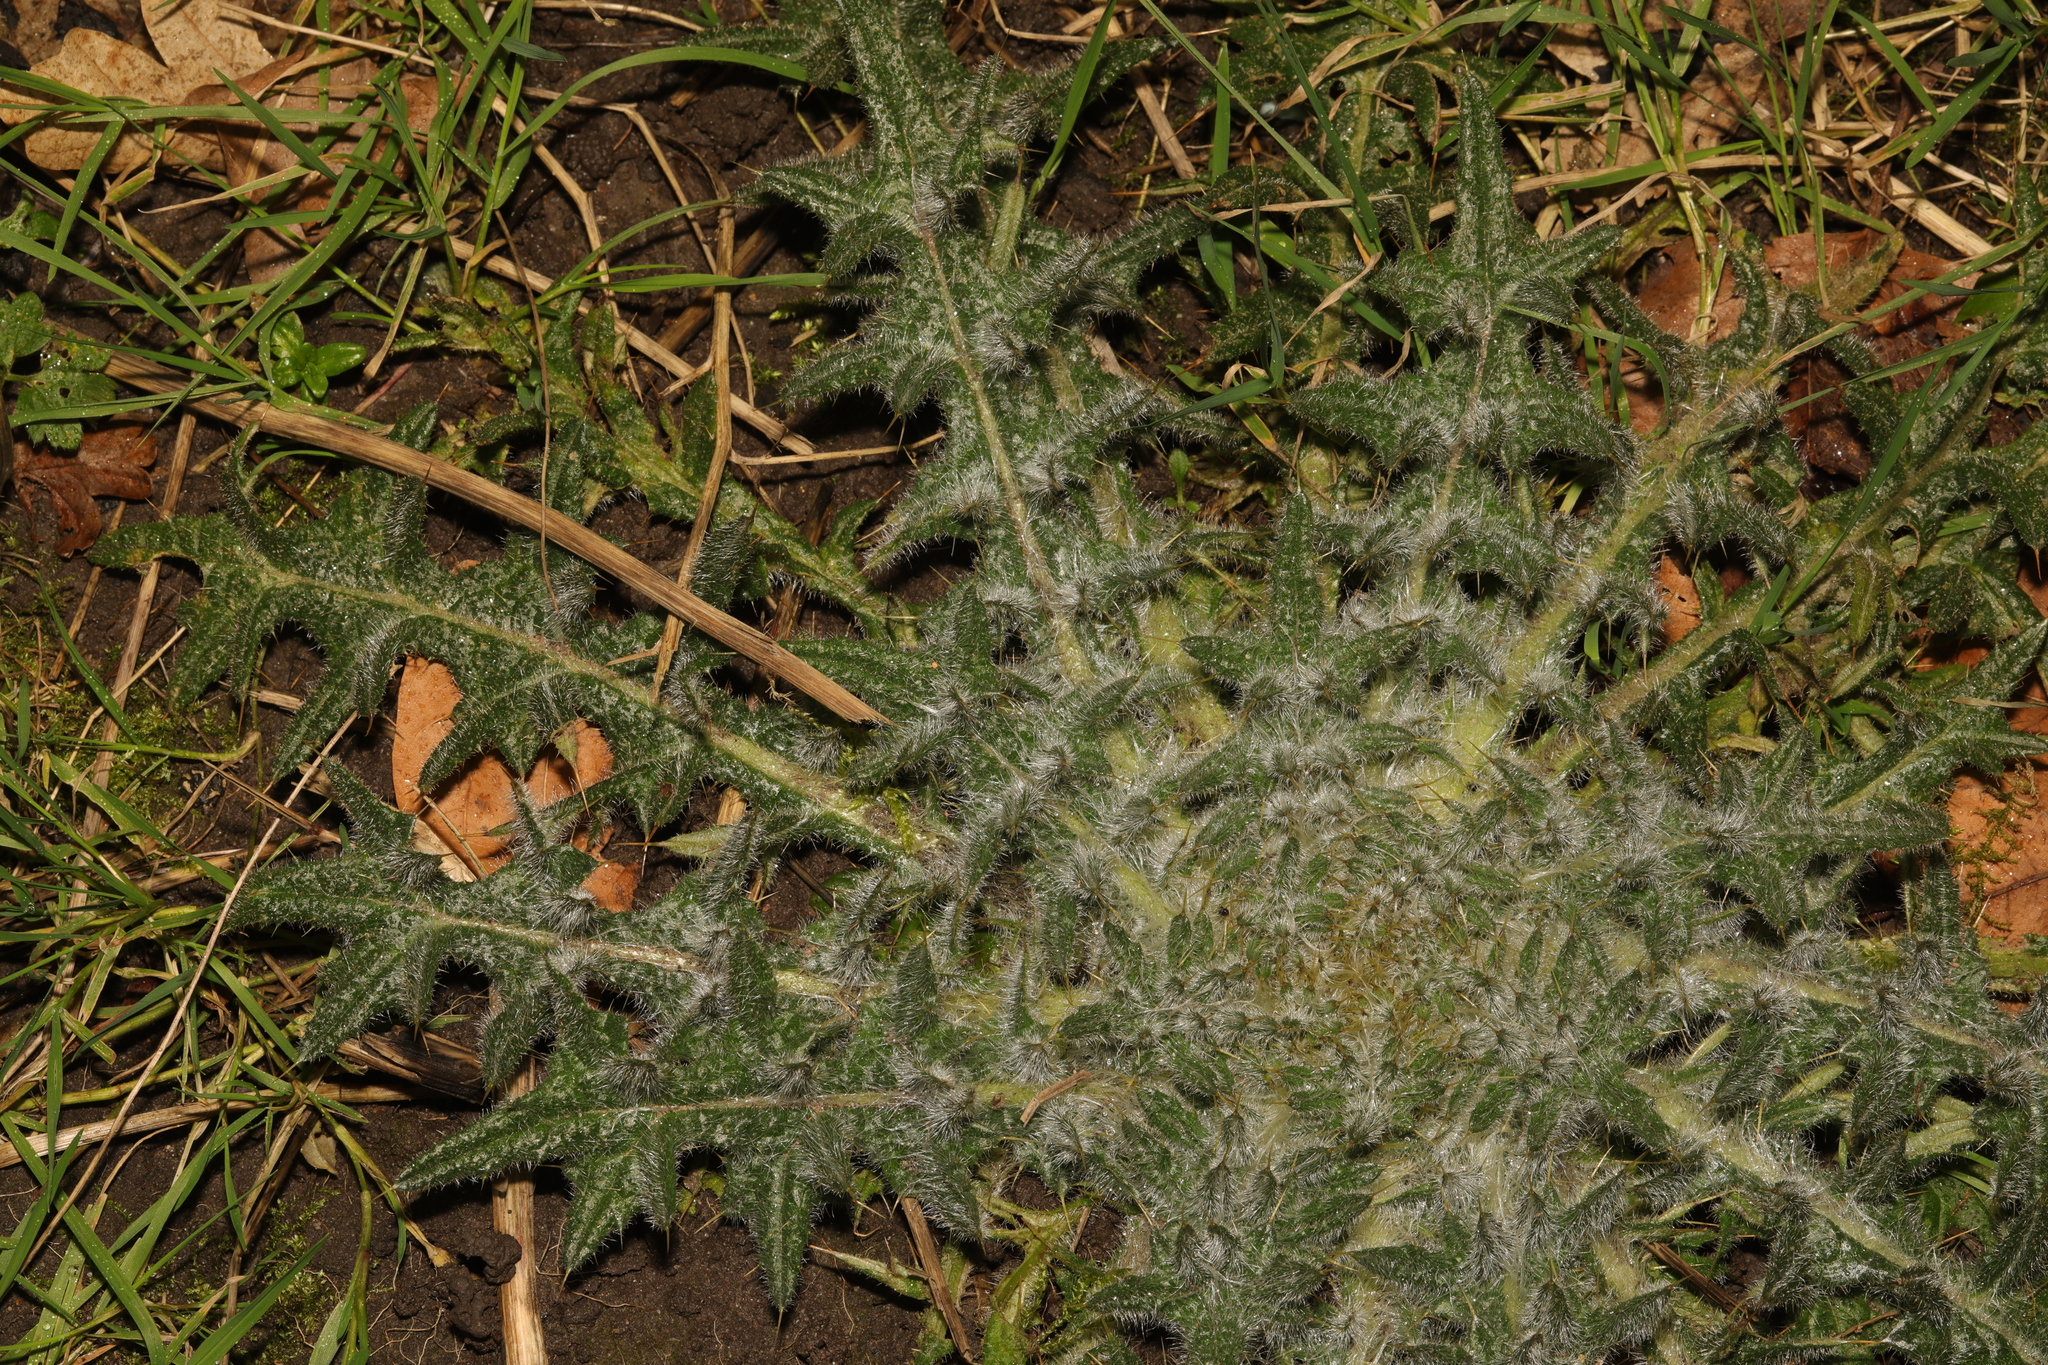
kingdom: Plantae
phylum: Tracheophyta
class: Magnoliopsida
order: Asterales
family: Asteraceae
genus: Cirsium
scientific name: Cirsium vulgare
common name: Bull thistle
